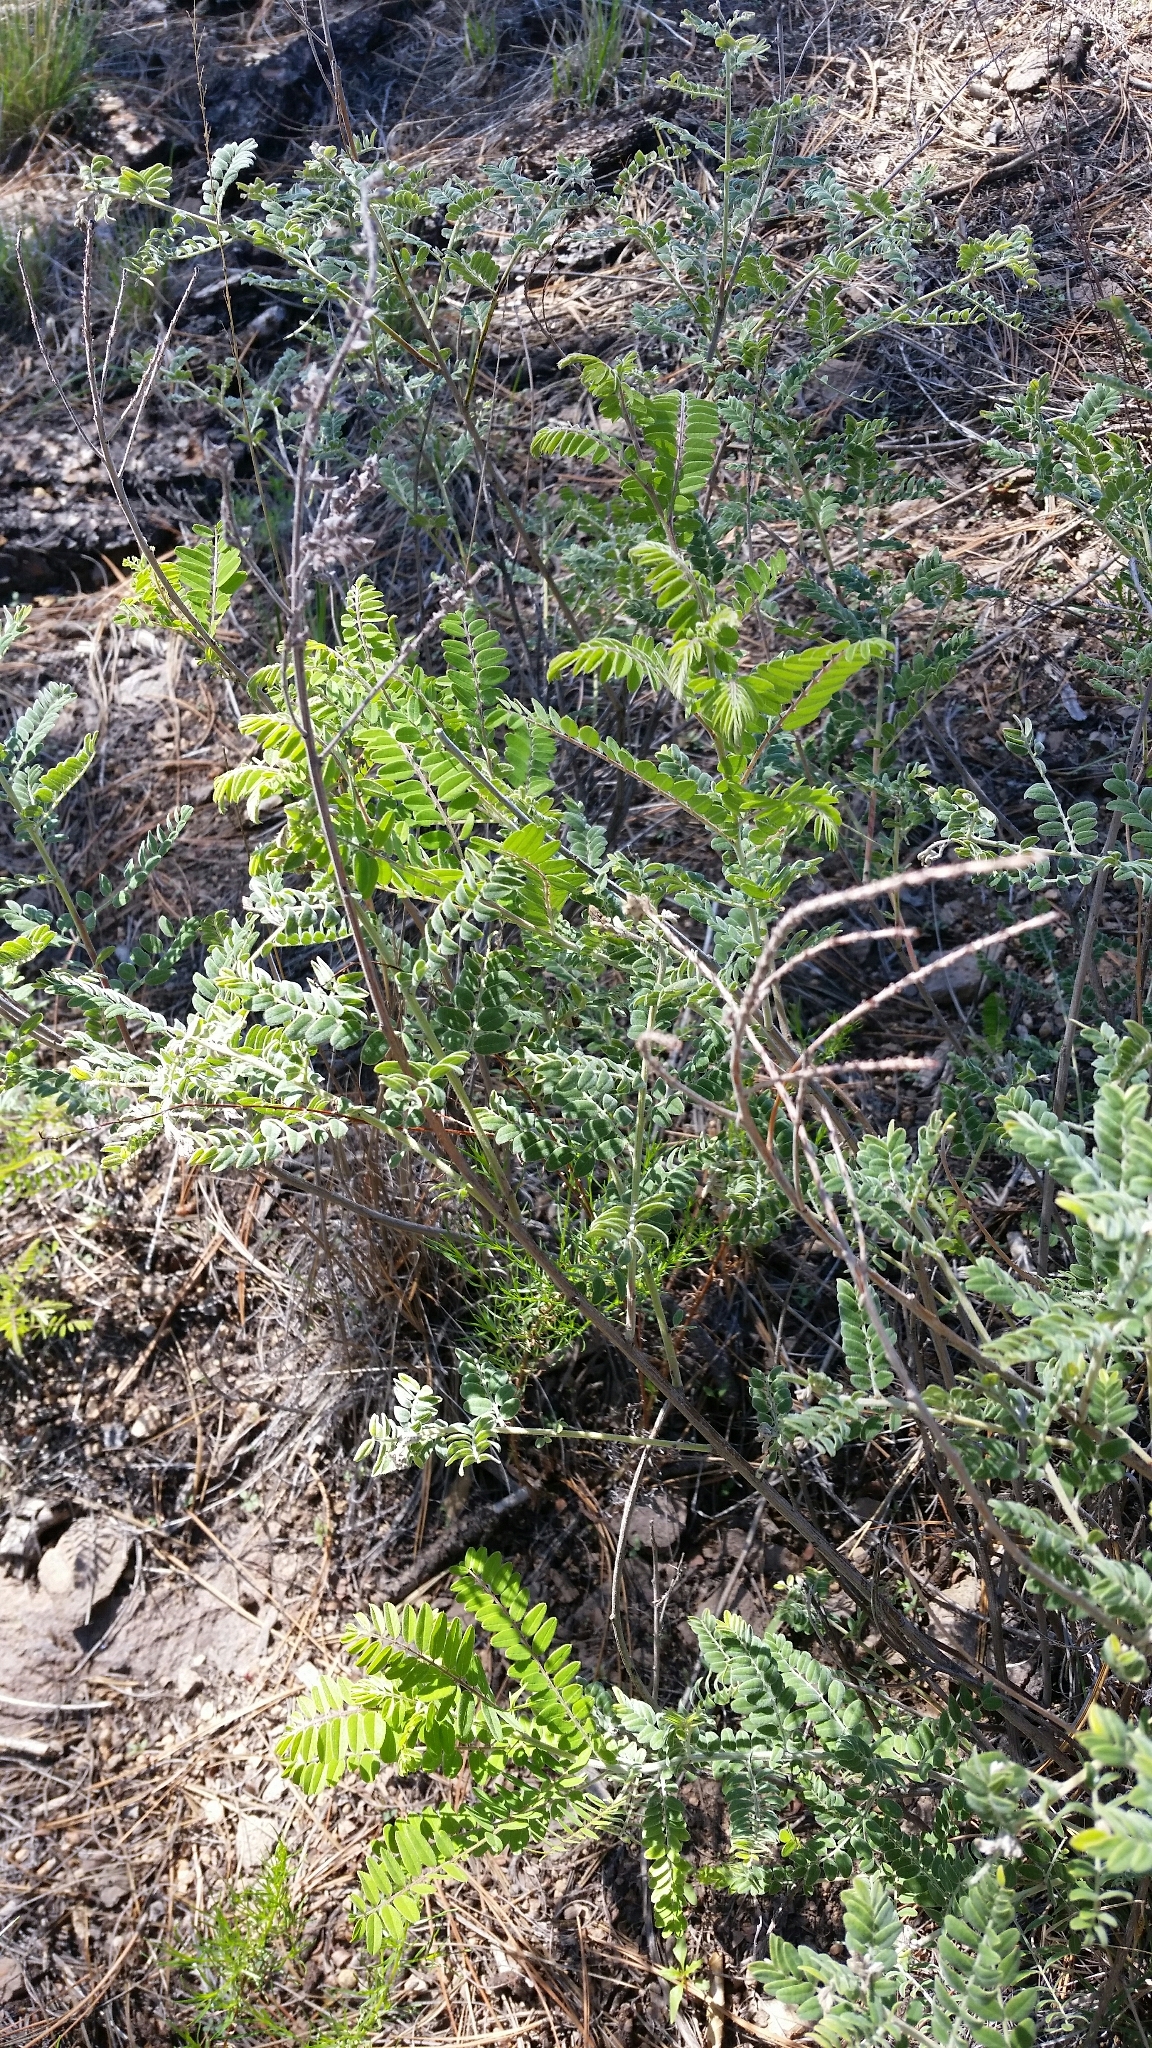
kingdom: Plantae
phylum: Tracheophyta
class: Magnoliopsida
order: Fabales
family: Fabaceae
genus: Amorpha
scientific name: Amorpha canescens
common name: Leadplant
